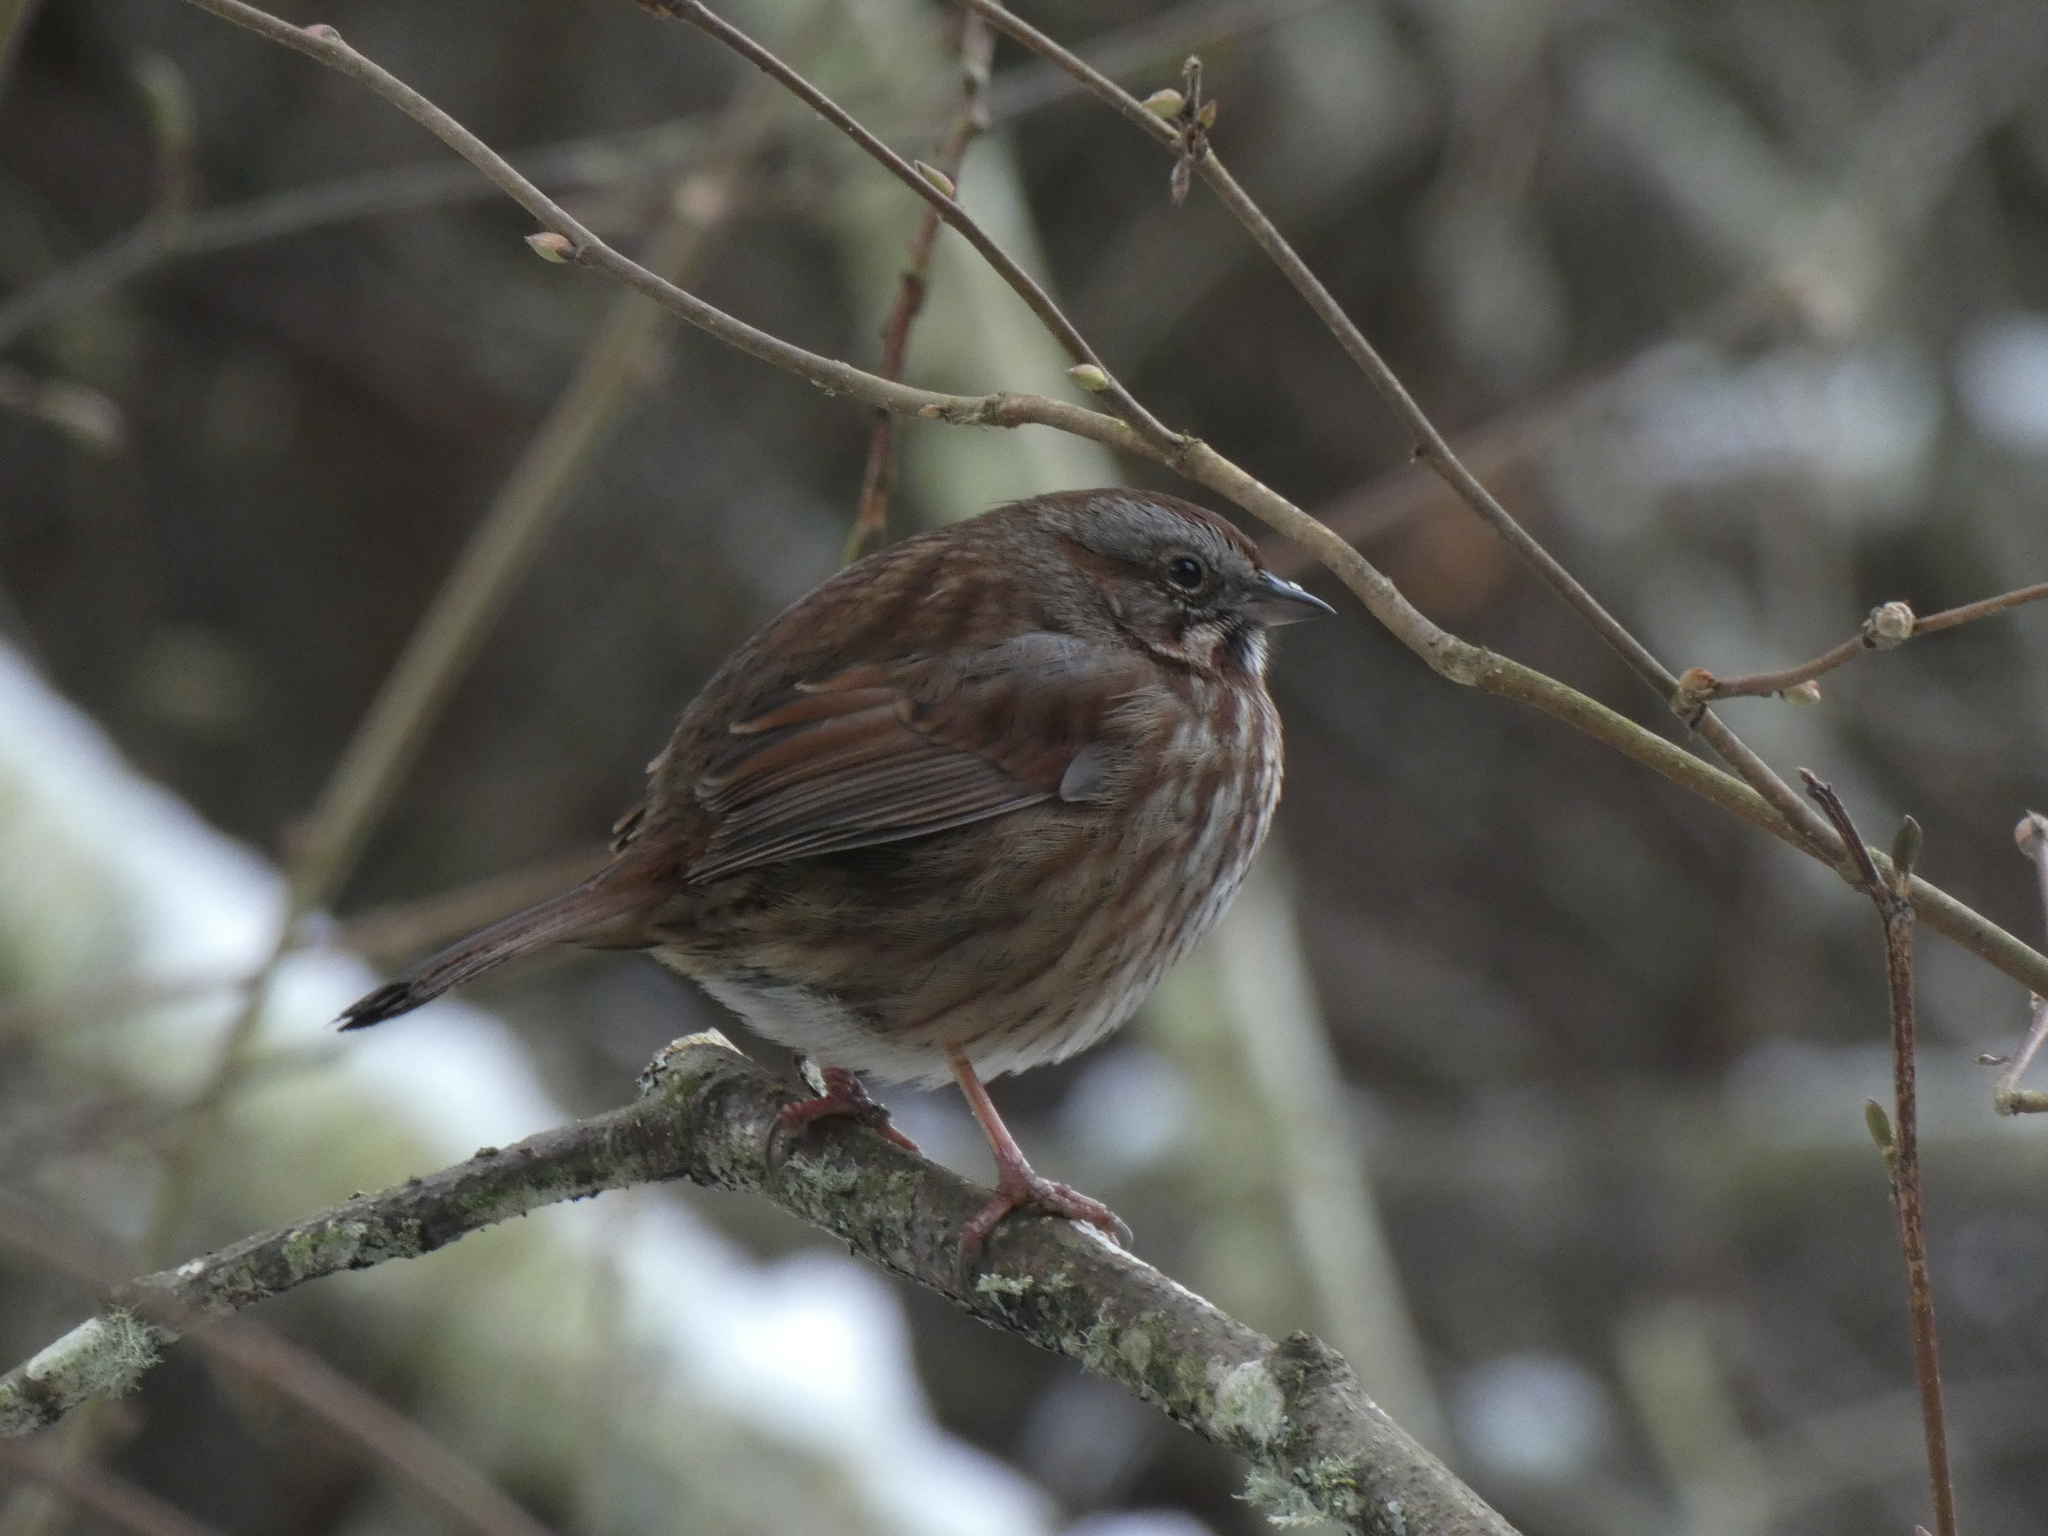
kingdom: Animalia
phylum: Chordata
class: Aves
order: Passeriformes
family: Passerellidae
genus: Melospiza
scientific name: Melospiza melodia
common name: Song sparrow
